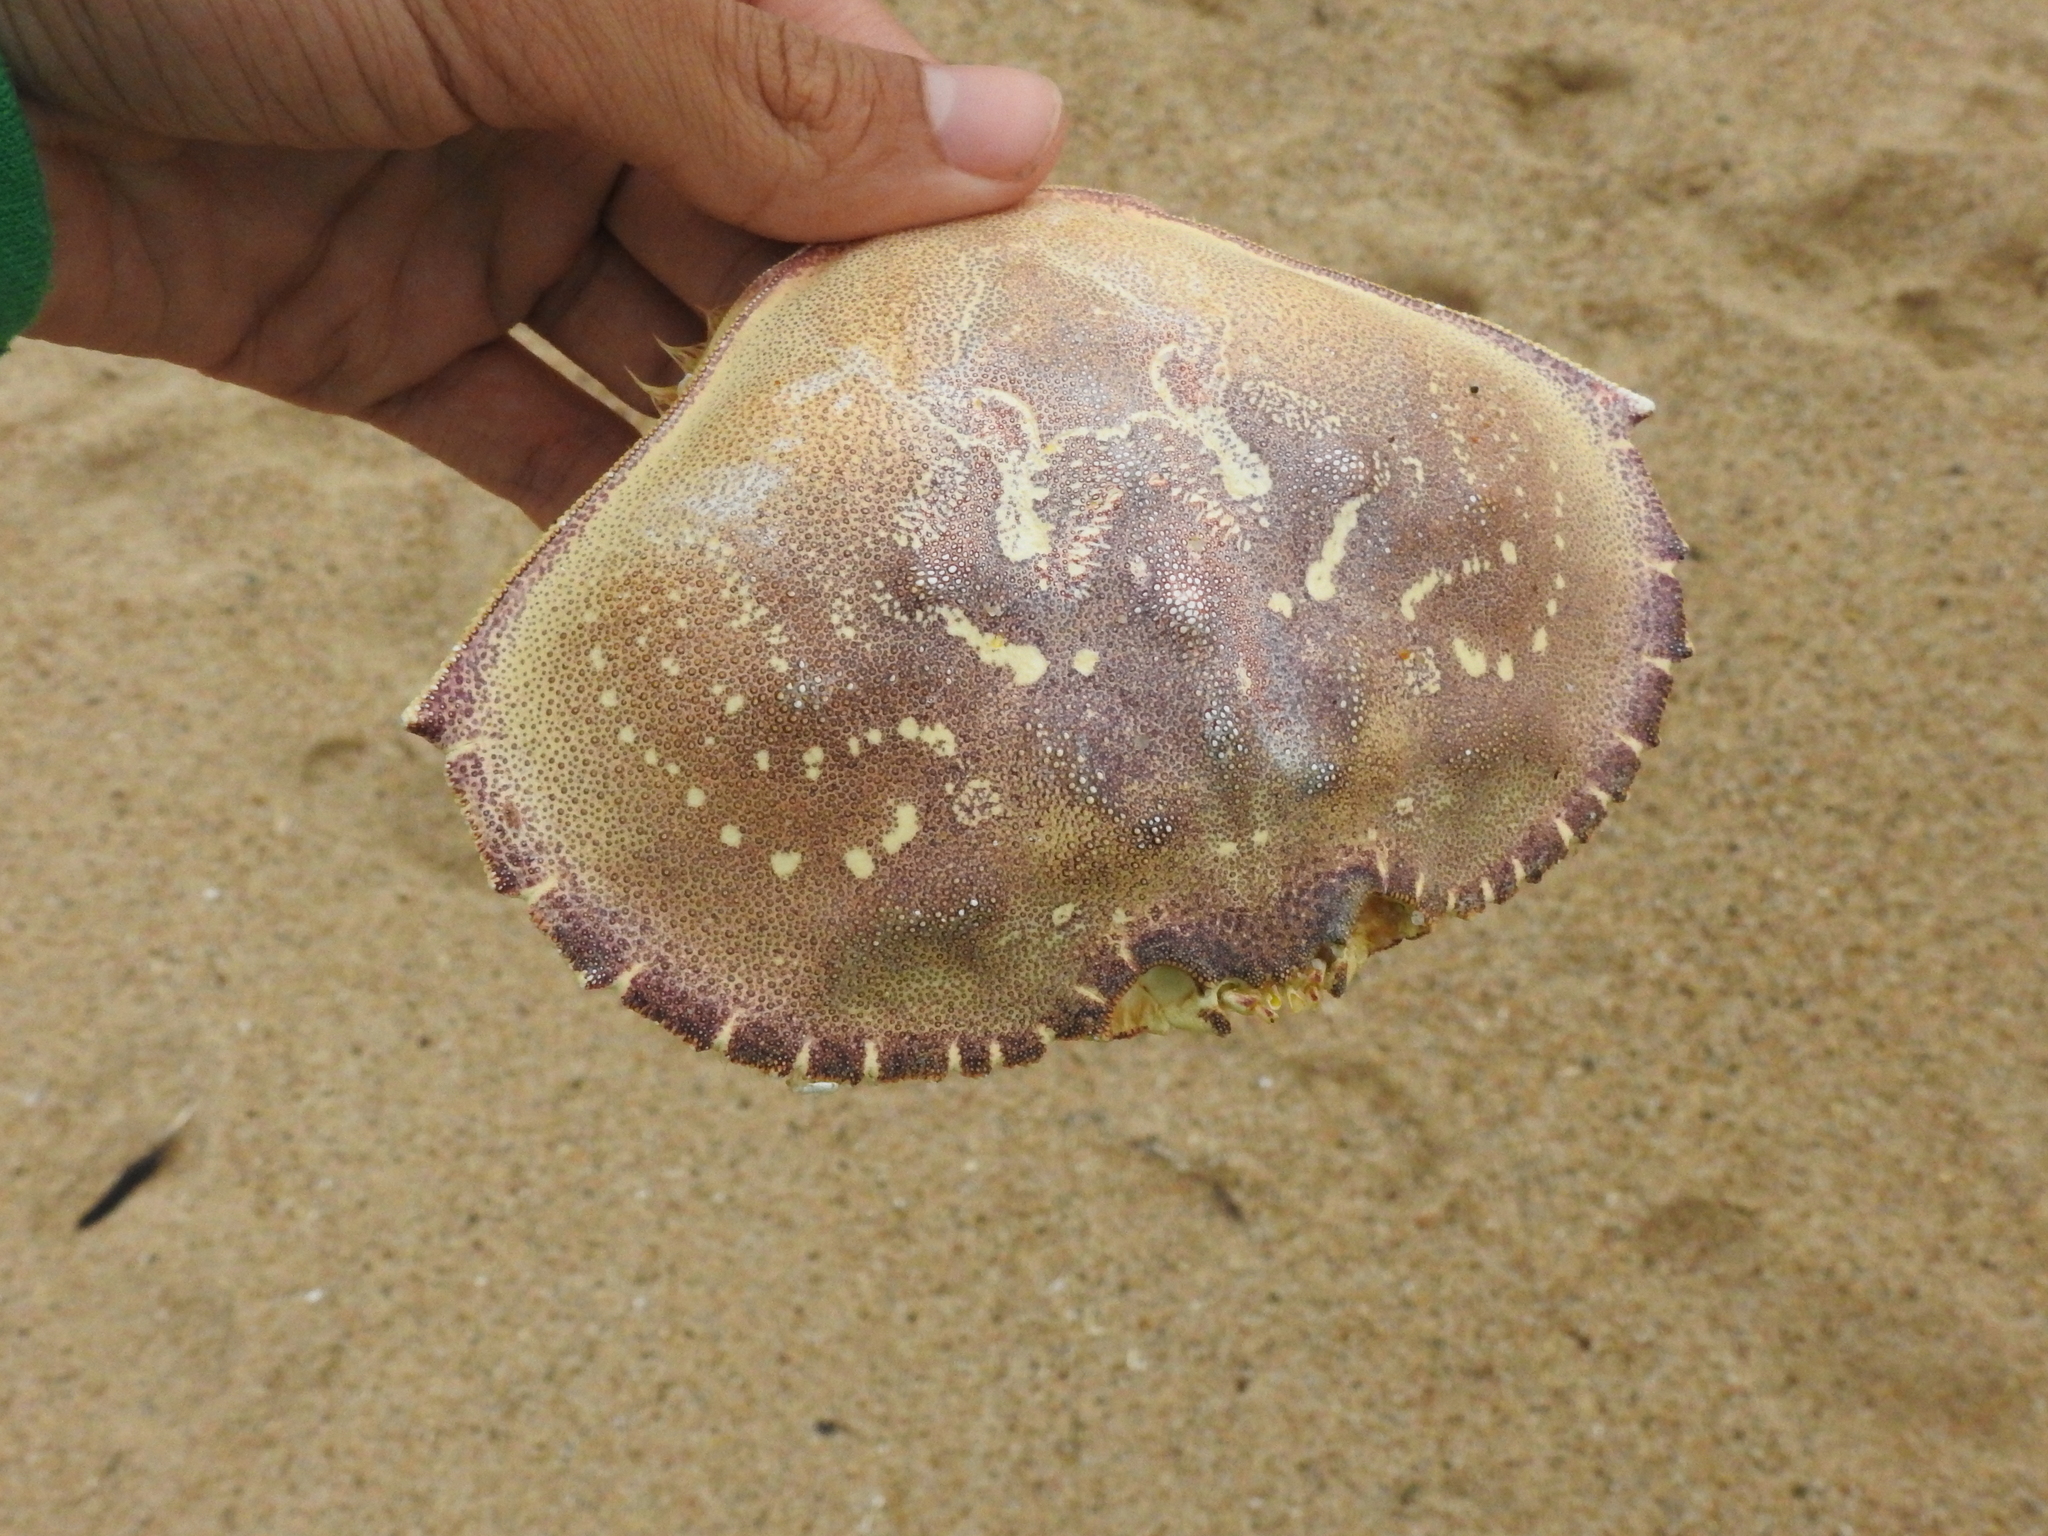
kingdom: Animalia
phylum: Arthropoda
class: Malacostraca
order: Decapoda
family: Cancridae
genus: Metacarcinus
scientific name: Metacarcinus magister
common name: Californian crab
